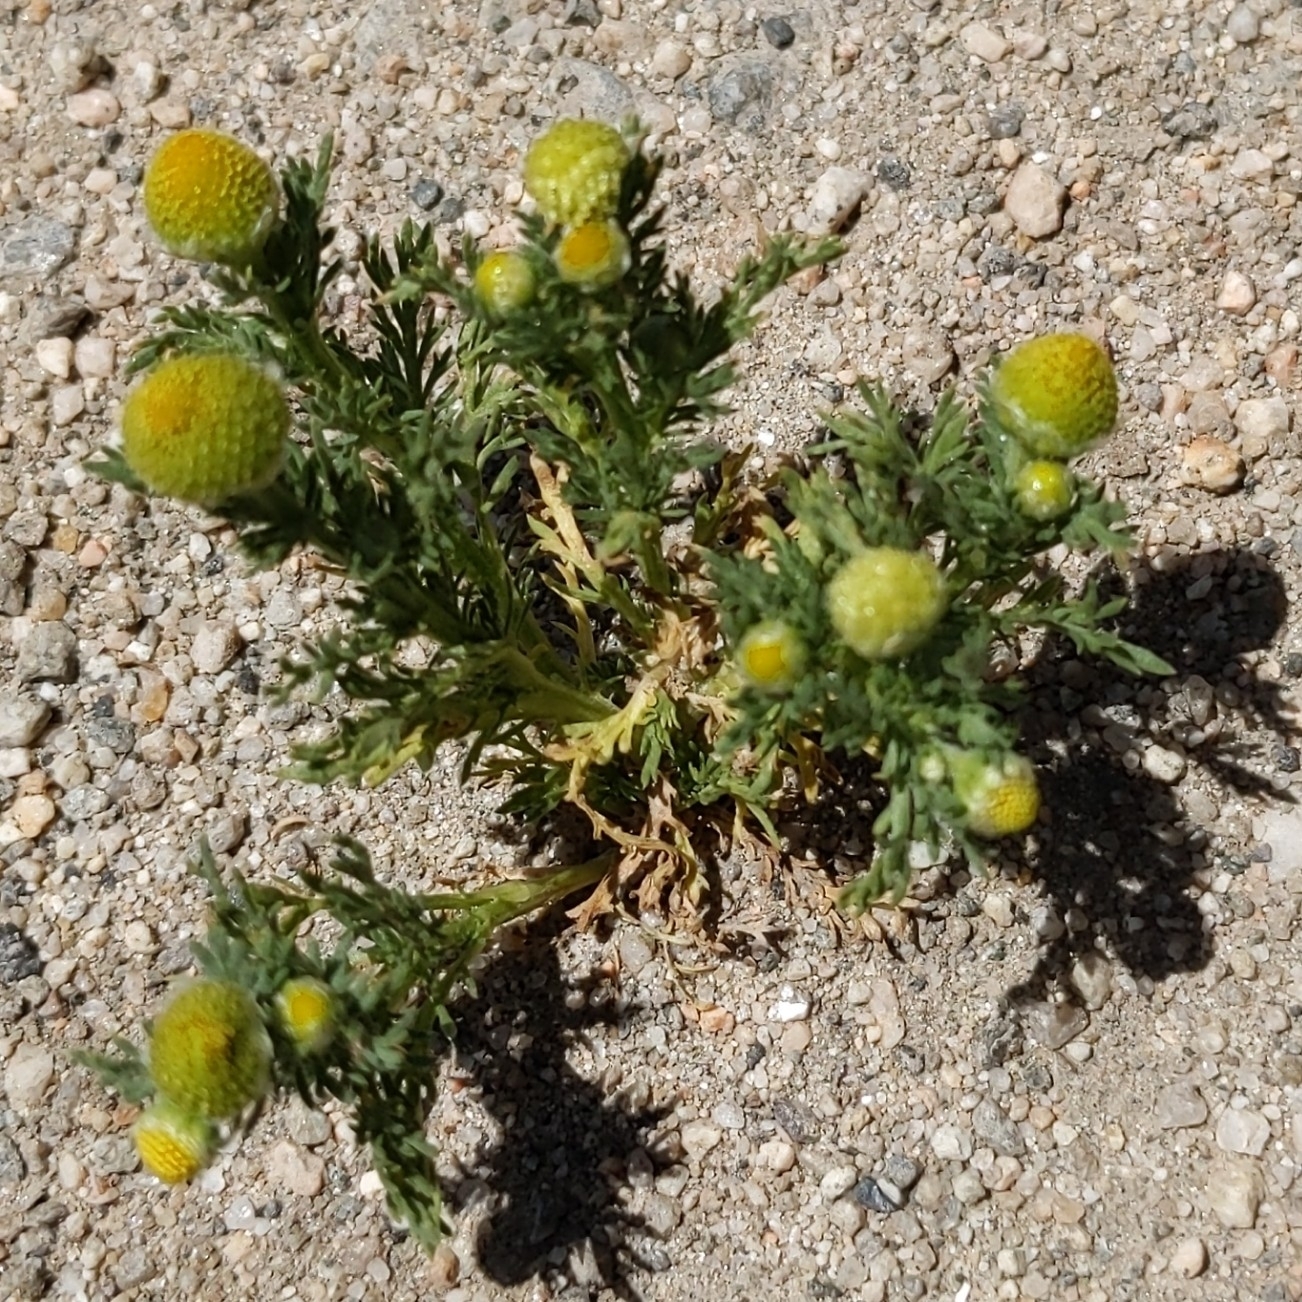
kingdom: Plantae
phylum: Tracheophyta
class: Magnoliopsida
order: Asterales
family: Asteraceae
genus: Matricaria
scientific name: Matricaria discoidea
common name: Disc mayweed
